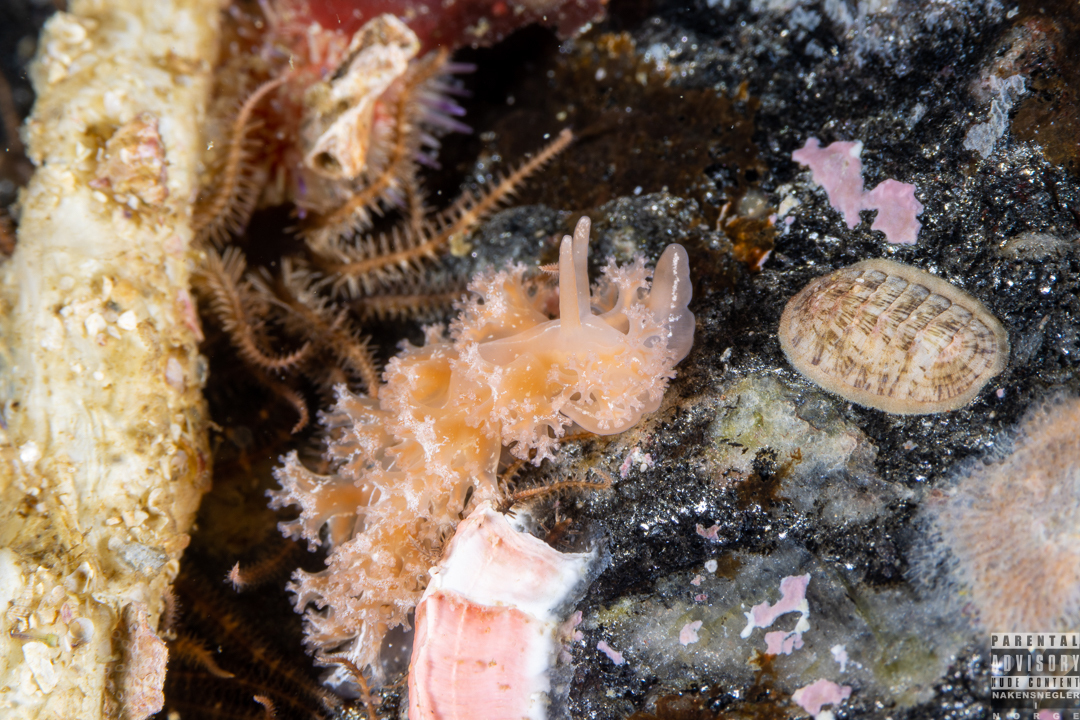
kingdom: Animalia
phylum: Mollusca
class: Gastropoda
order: Nudibranchia
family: Heroidae
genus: Hero
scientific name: Hero formosa
